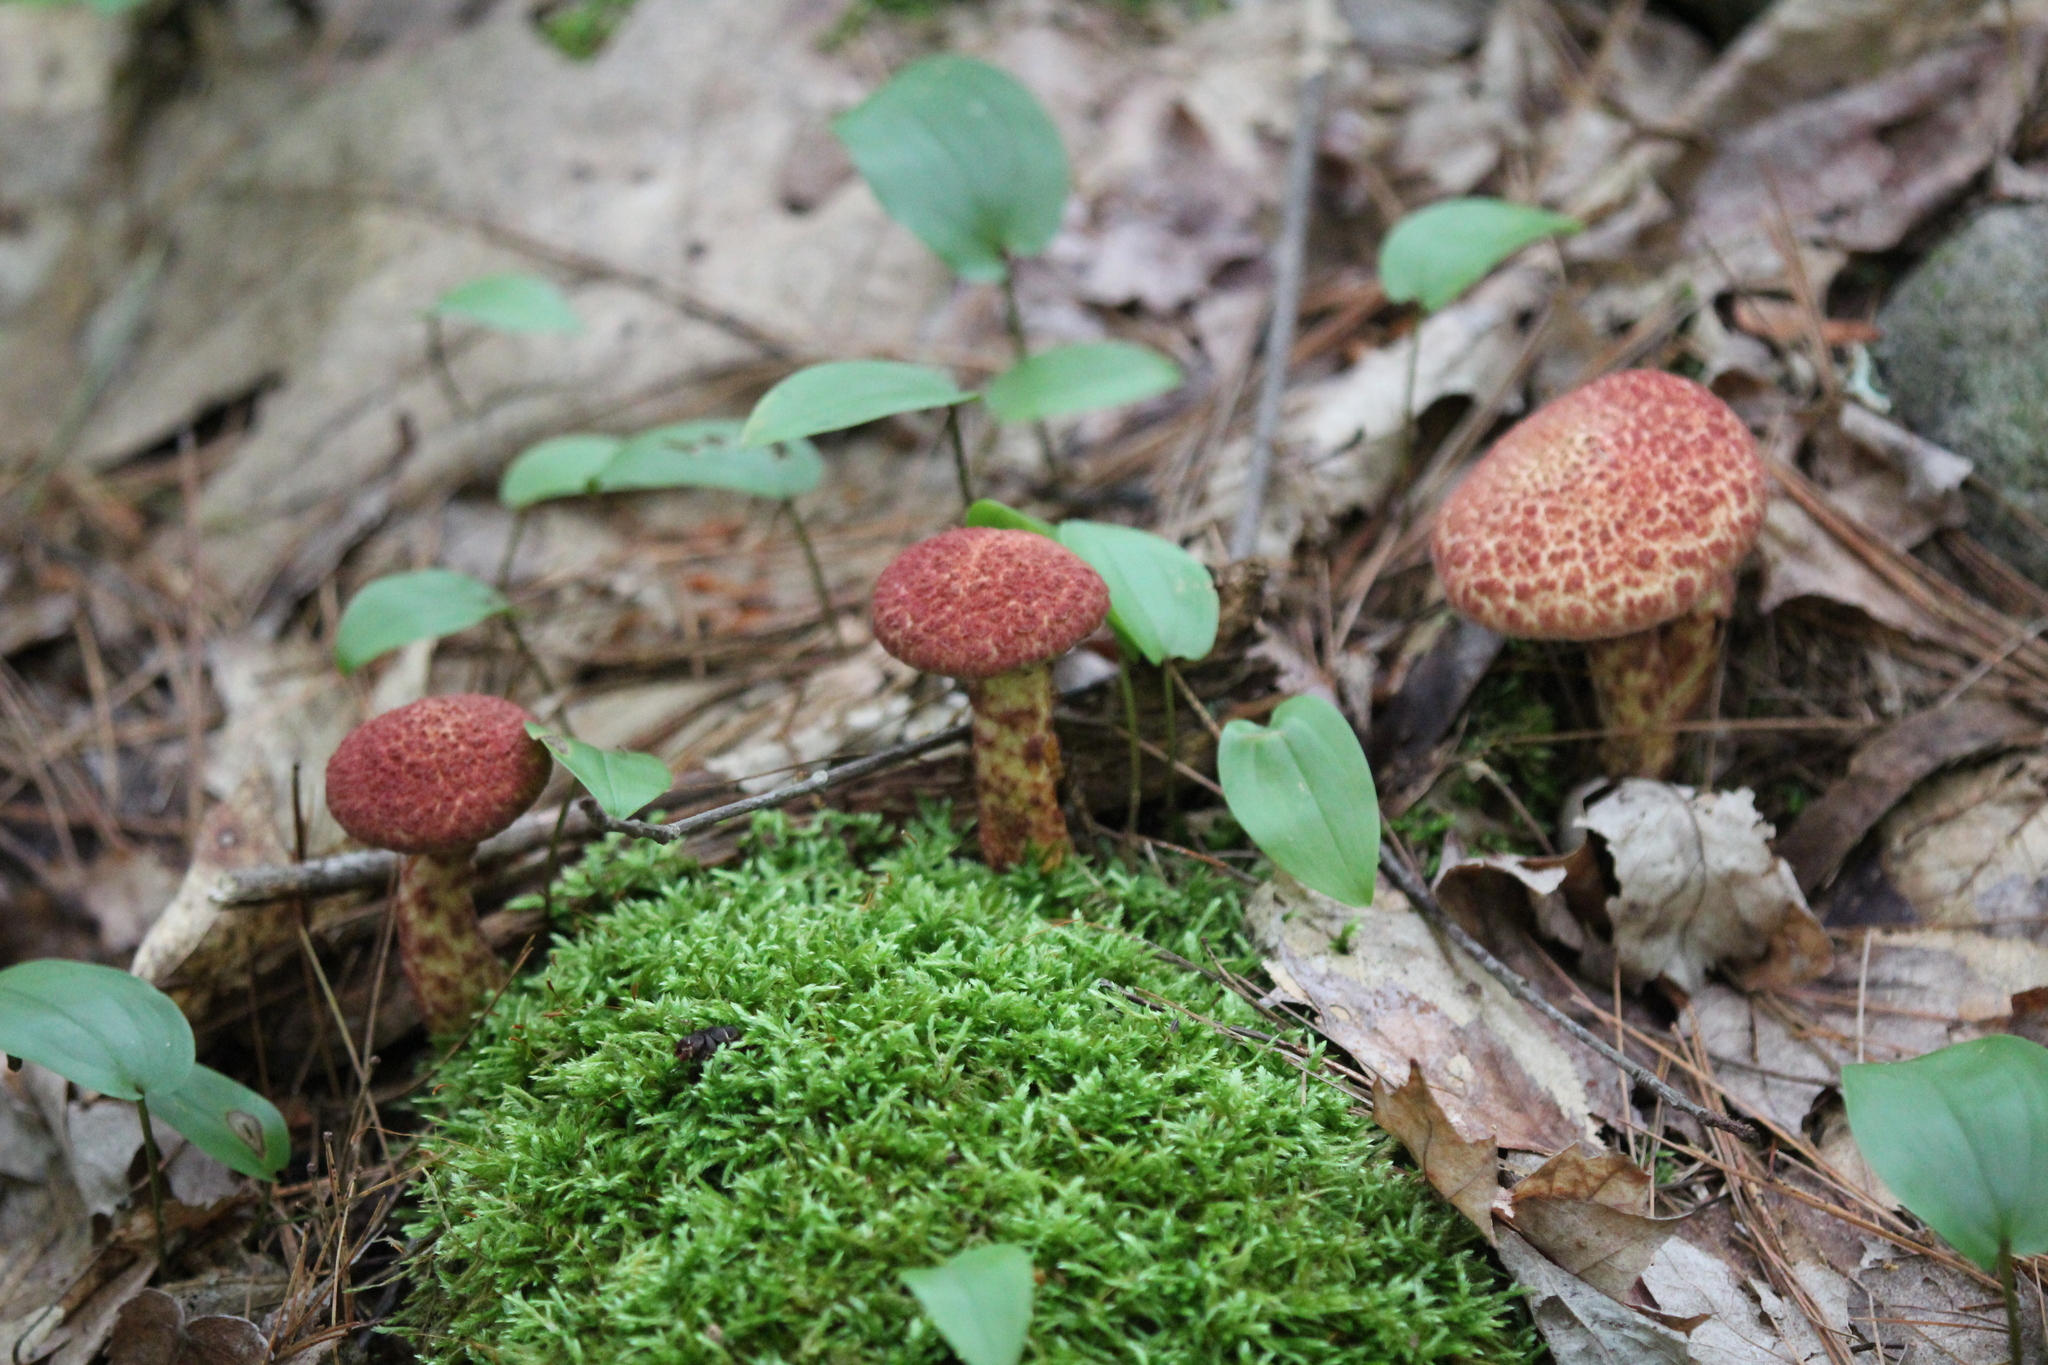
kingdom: Fungi
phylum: Basidiomycota
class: Agaricomycetes
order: Boletales
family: Suillaceae
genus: Suillus
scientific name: Suillus spraguei
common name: Painted suillus
